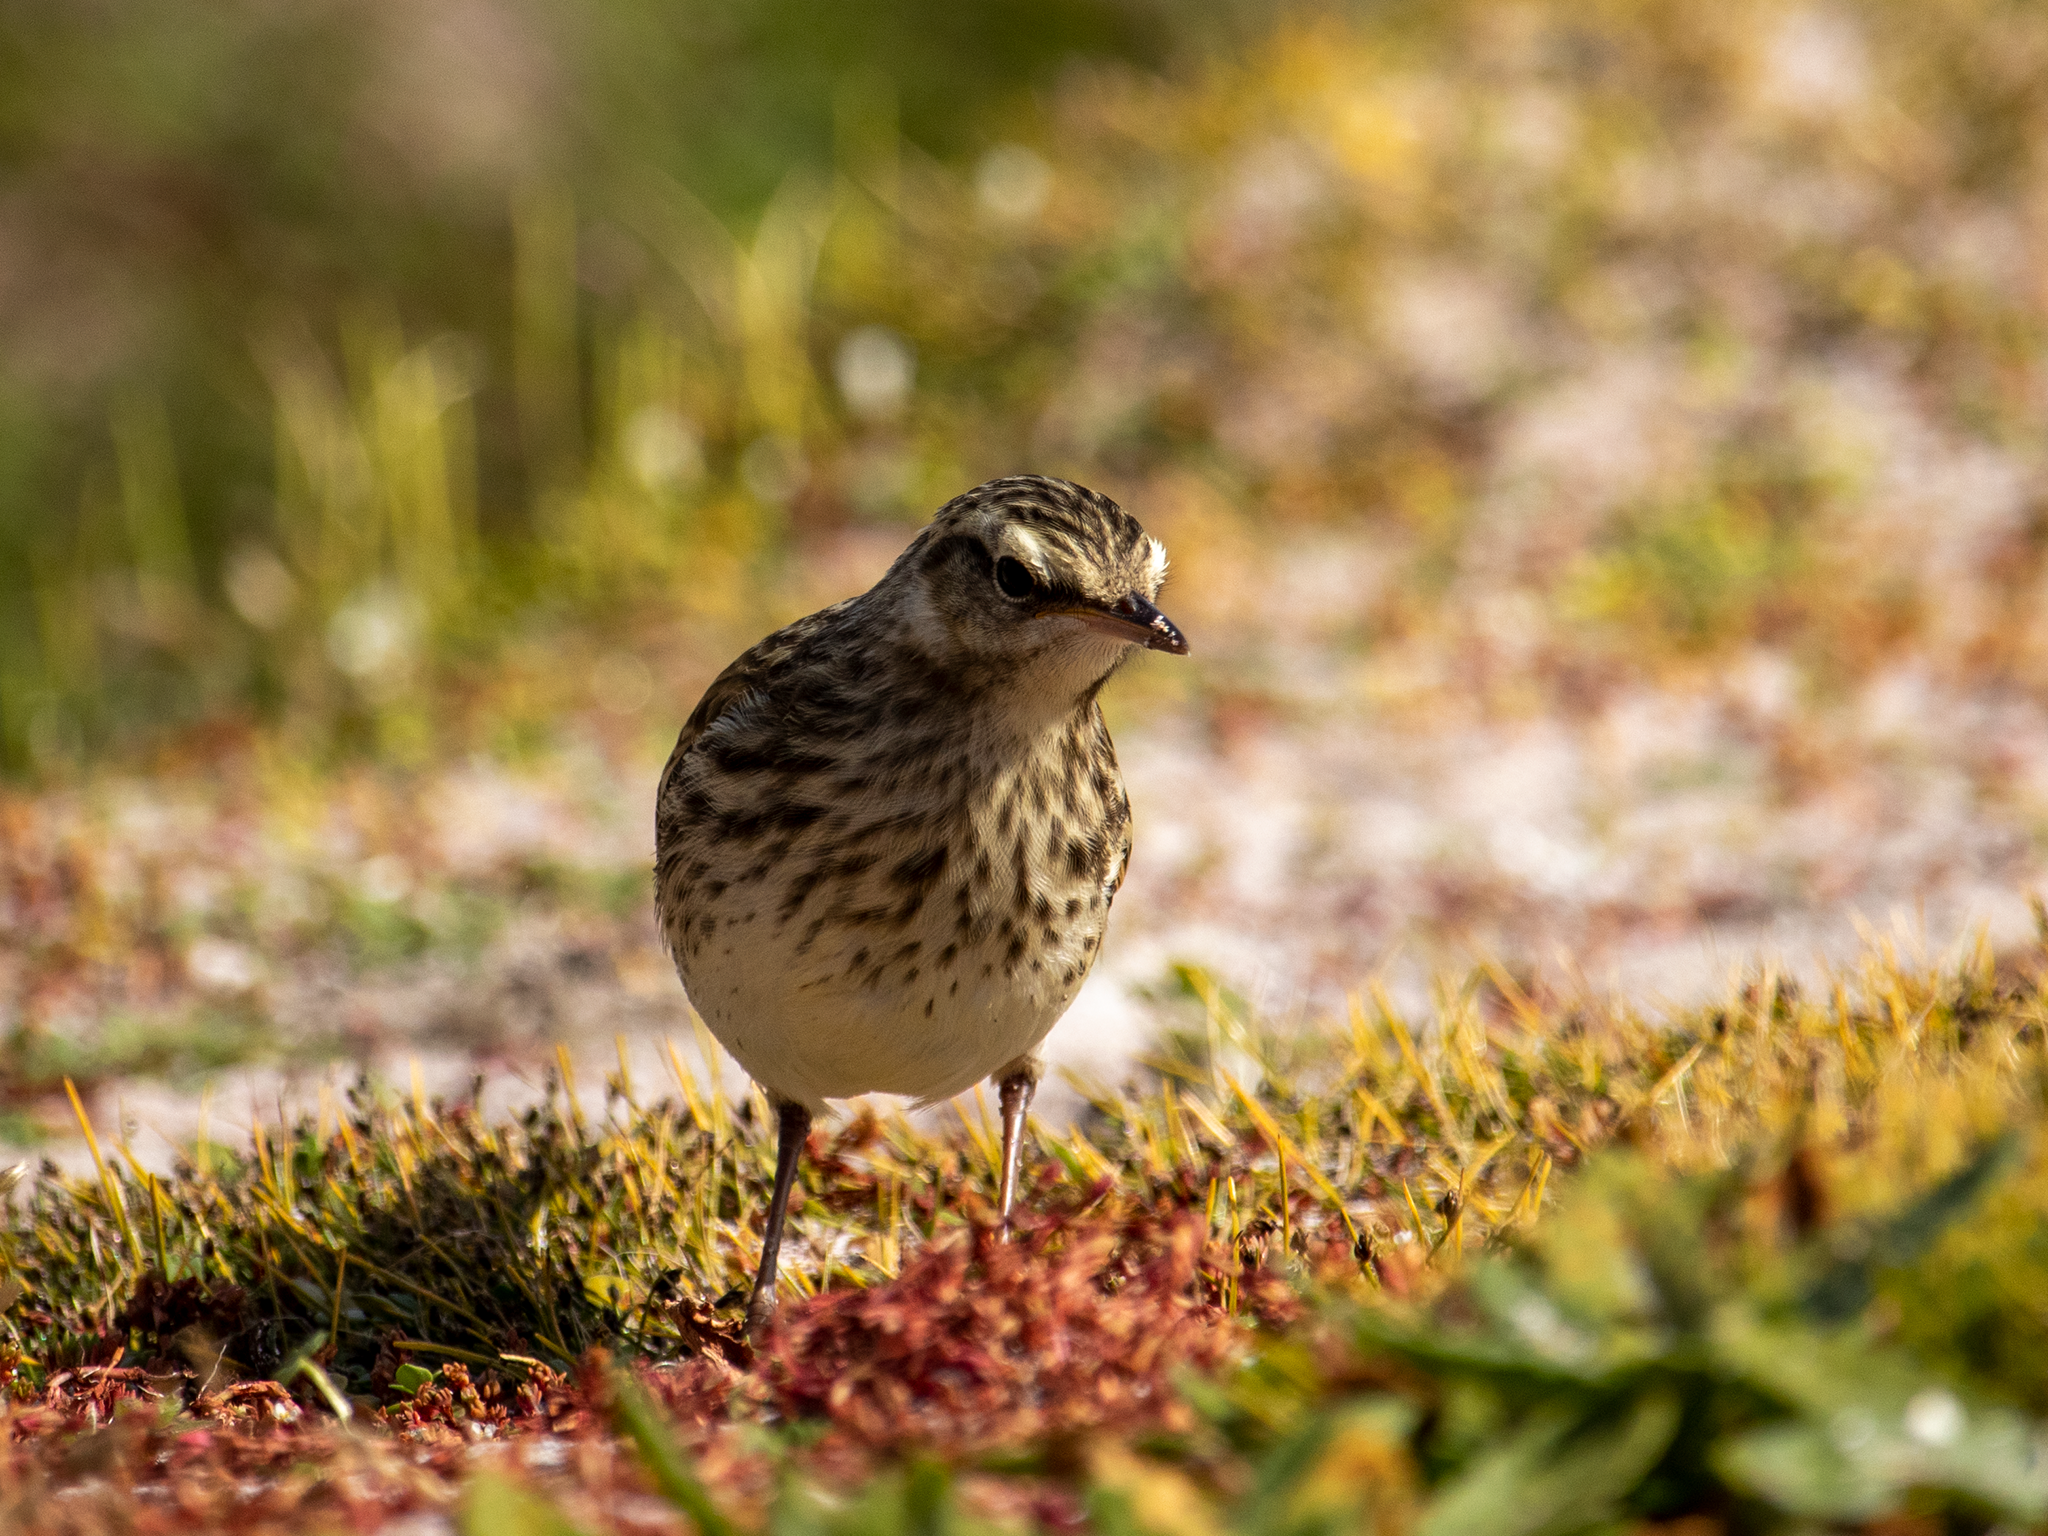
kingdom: Animalia
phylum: Chordata
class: Aves
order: Passeriformes
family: Motacillidae
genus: Anthus
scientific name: Anthus novaeseelandiae
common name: New zealand pipit
